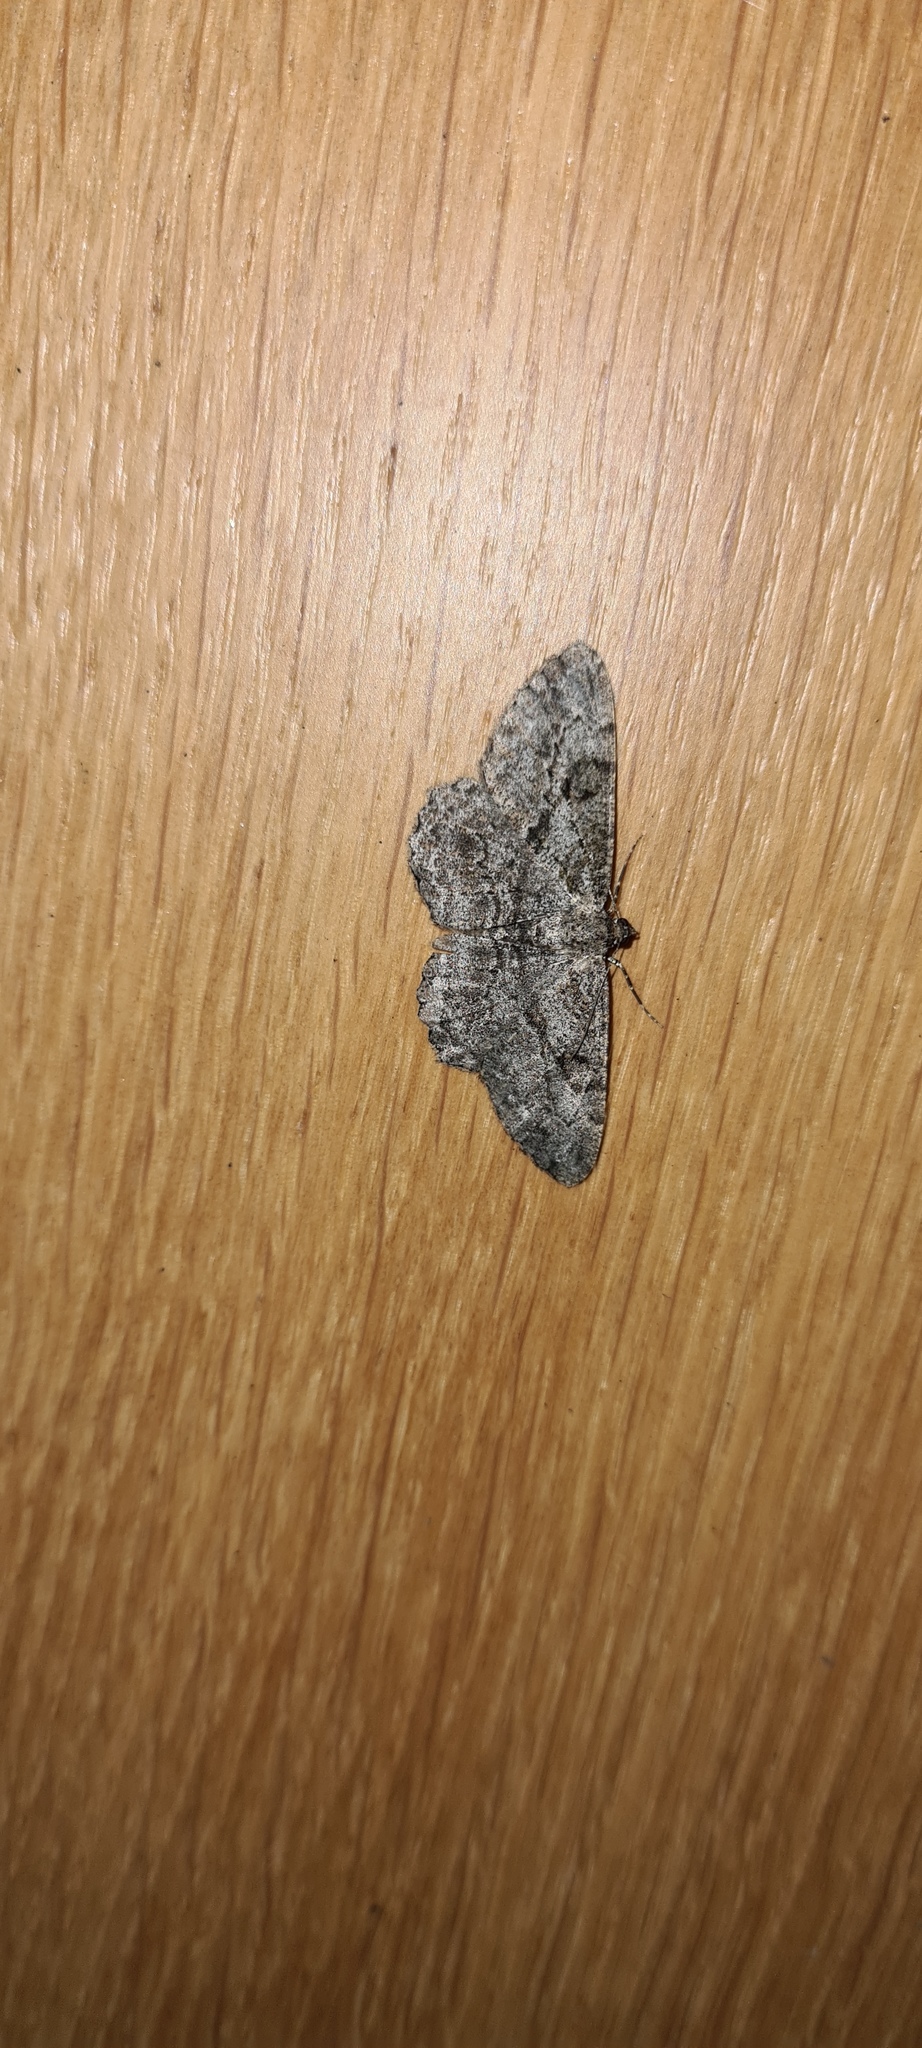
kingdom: Animalia
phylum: Arthropoda
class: Insecta
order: Lepidoptera
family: Geometridae
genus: Peribatodes
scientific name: Peribatodes rhomboidaria
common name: Willow beauty
